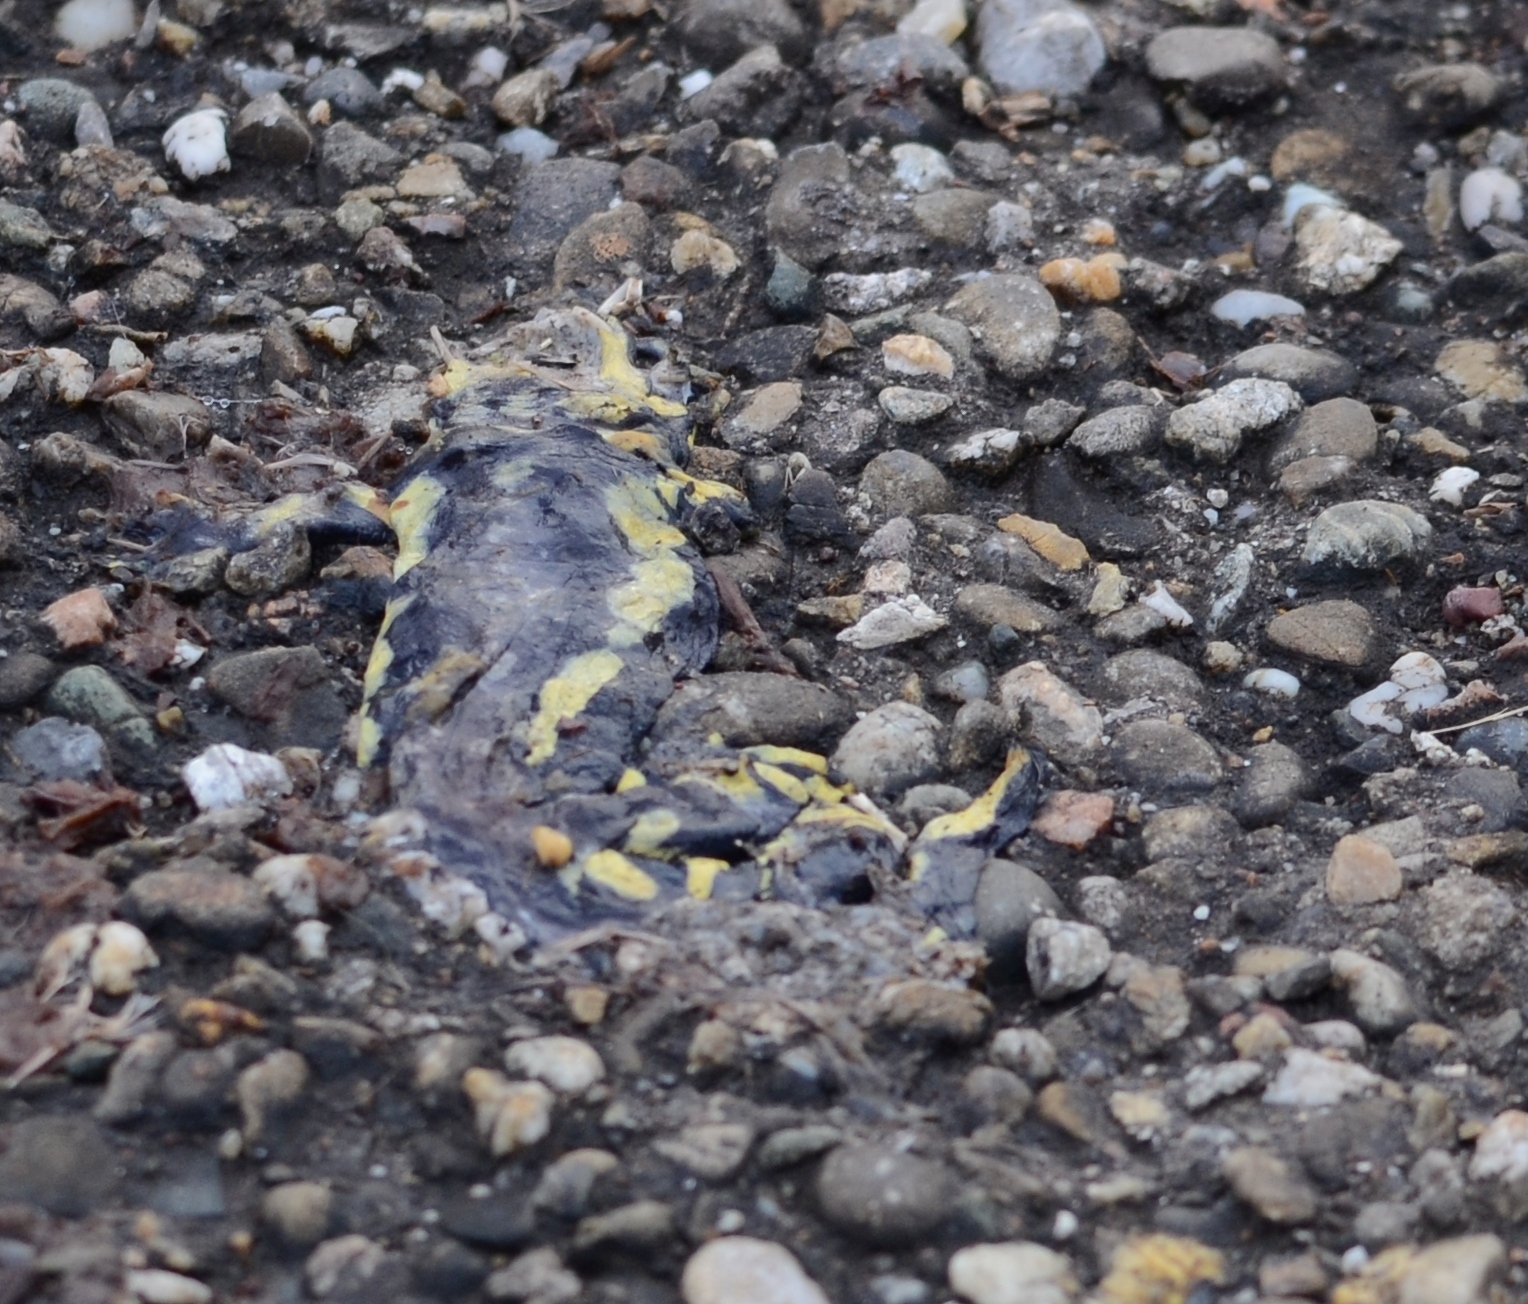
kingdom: Animalia
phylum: Chordata
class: Amphibia
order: Caudata
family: Salamandridae
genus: Salamandra
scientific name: Salamandra salamandra
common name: Fire salamander
